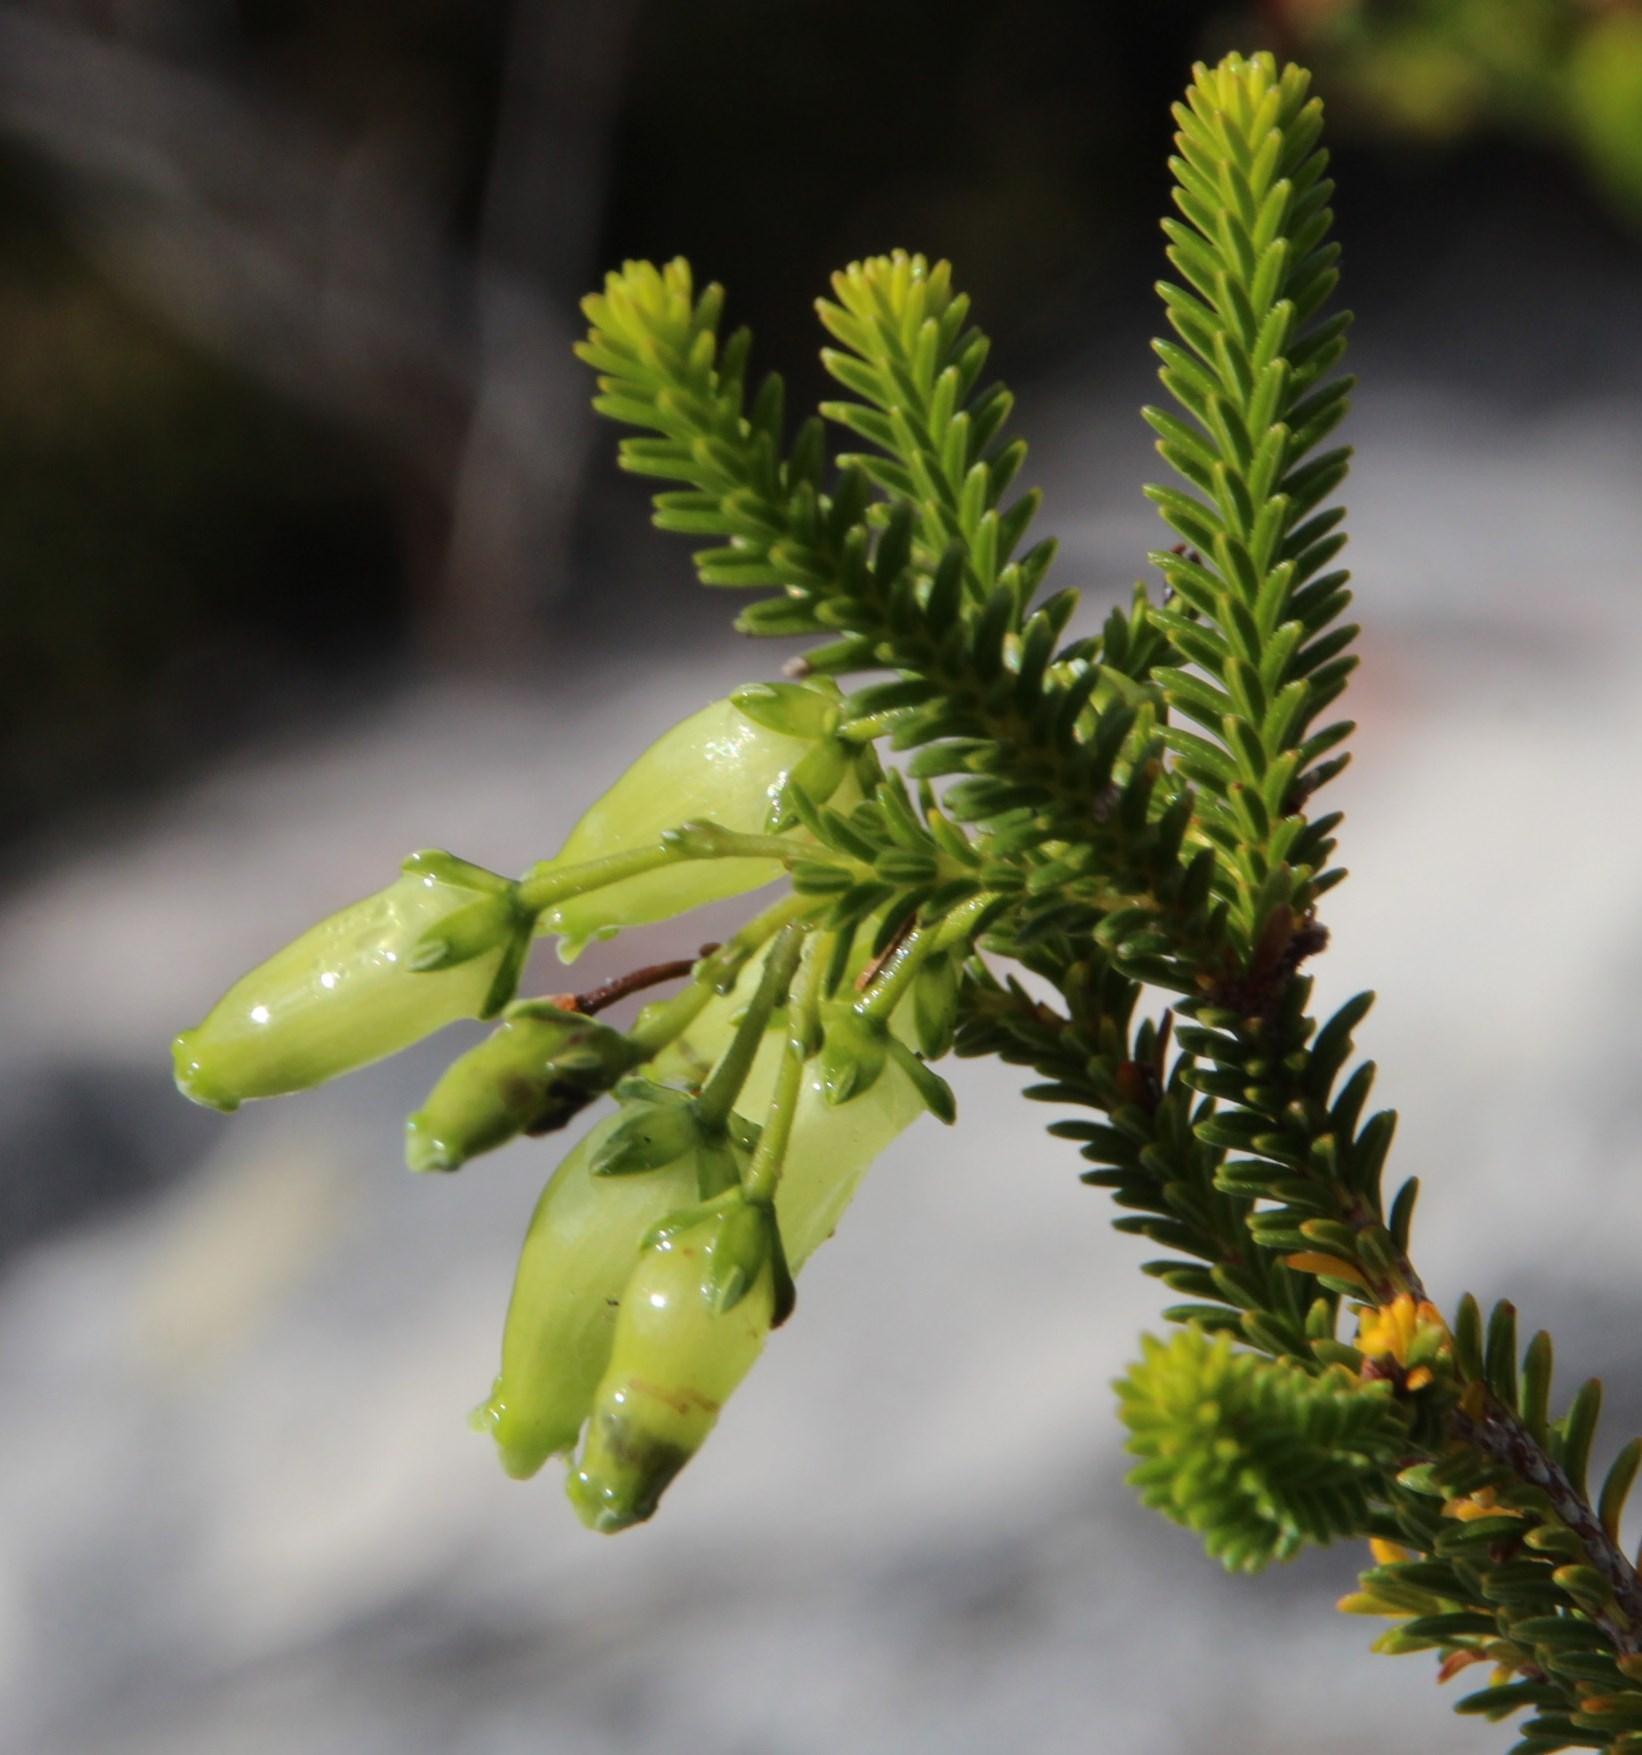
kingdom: Plantae
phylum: Tracheophyta
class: Magnoliopsida
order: Ericales
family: Ericaceae
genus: Erica
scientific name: Erica urna-viridis
